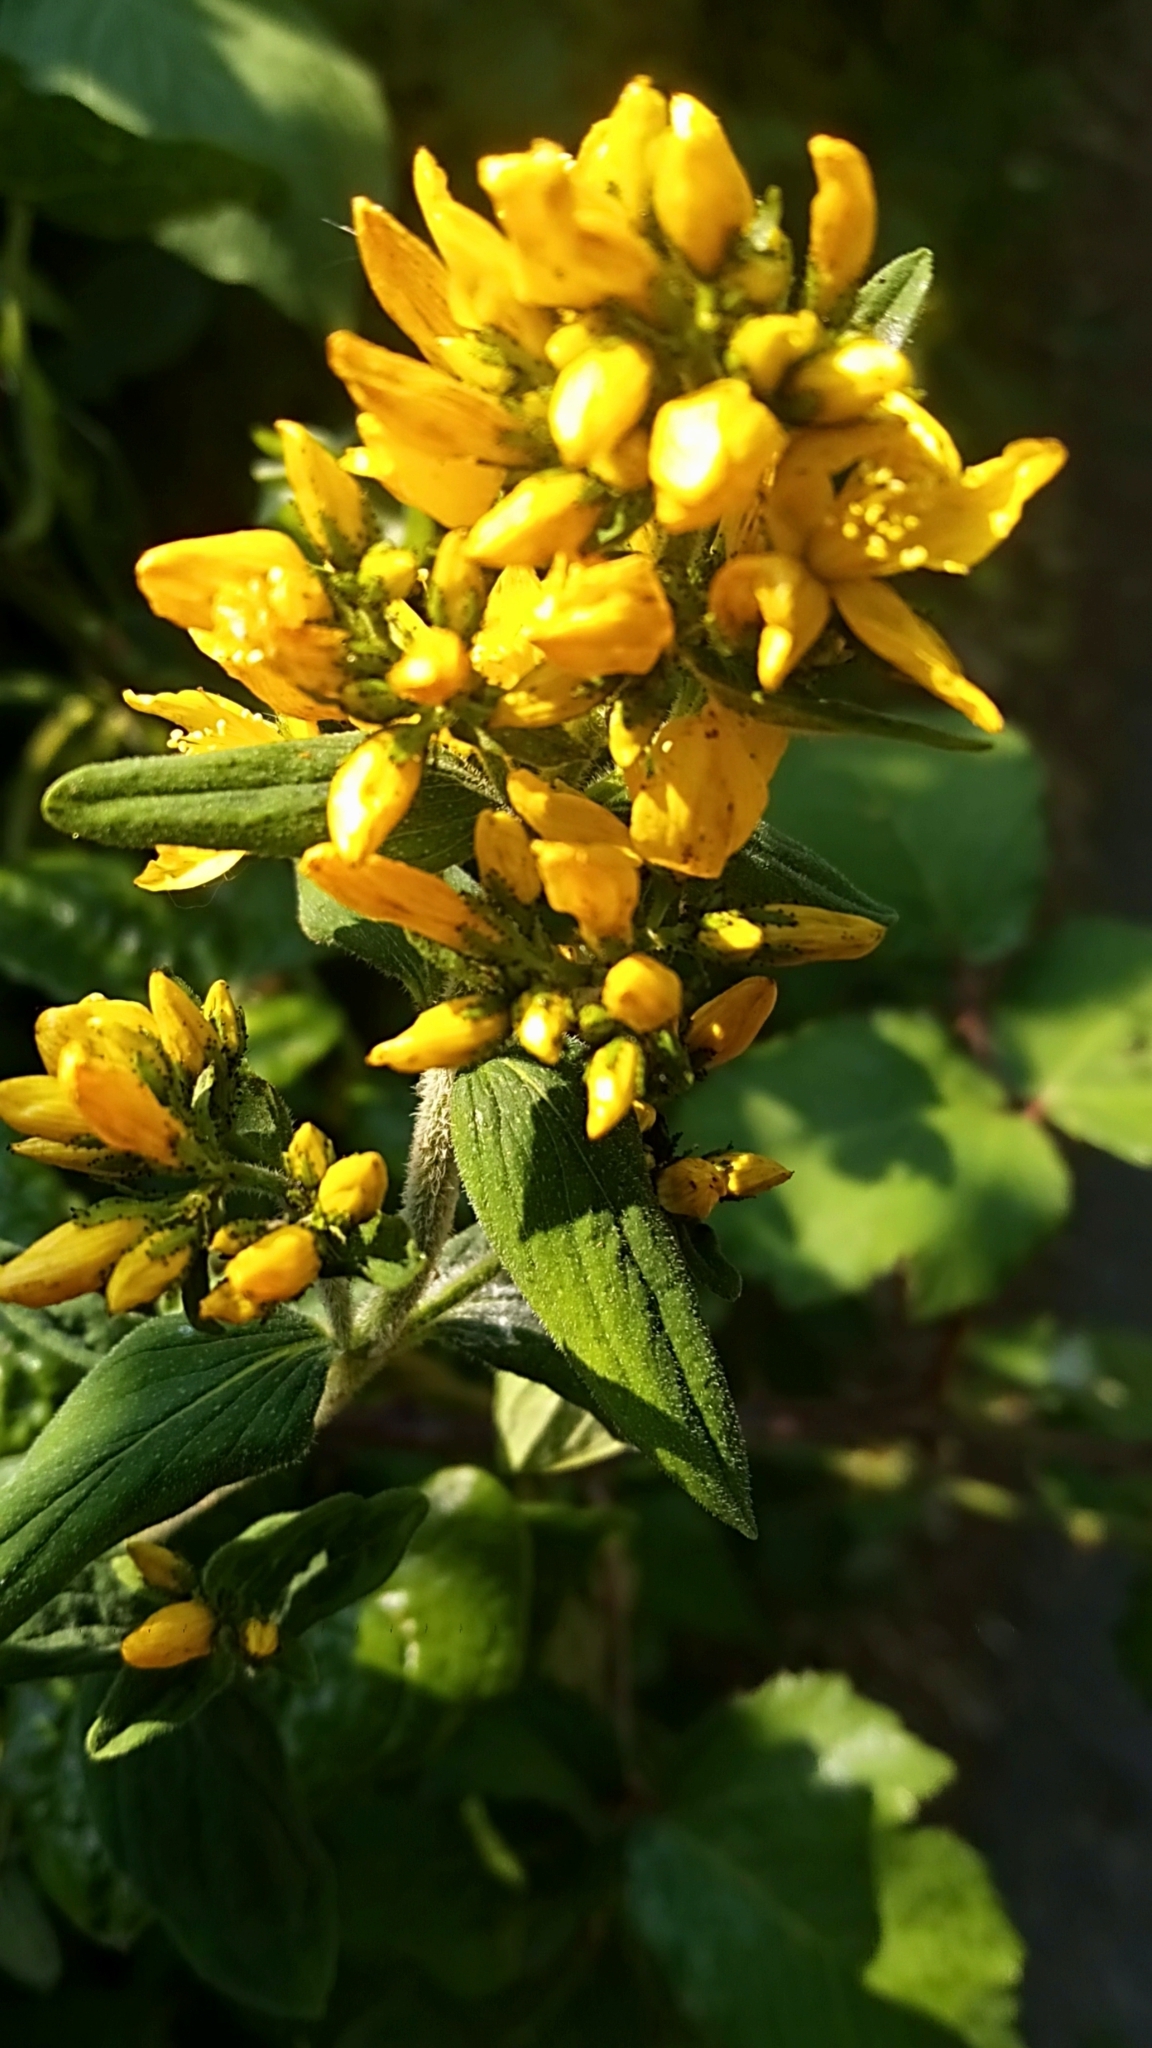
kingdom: Plantae
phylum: Tracheophyta
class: Magnoliopsida
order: Malpighiales
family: Hypericaceae
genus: Hypericum
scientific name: Hypericum hirsutum
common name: Hairy st. john's-wort
